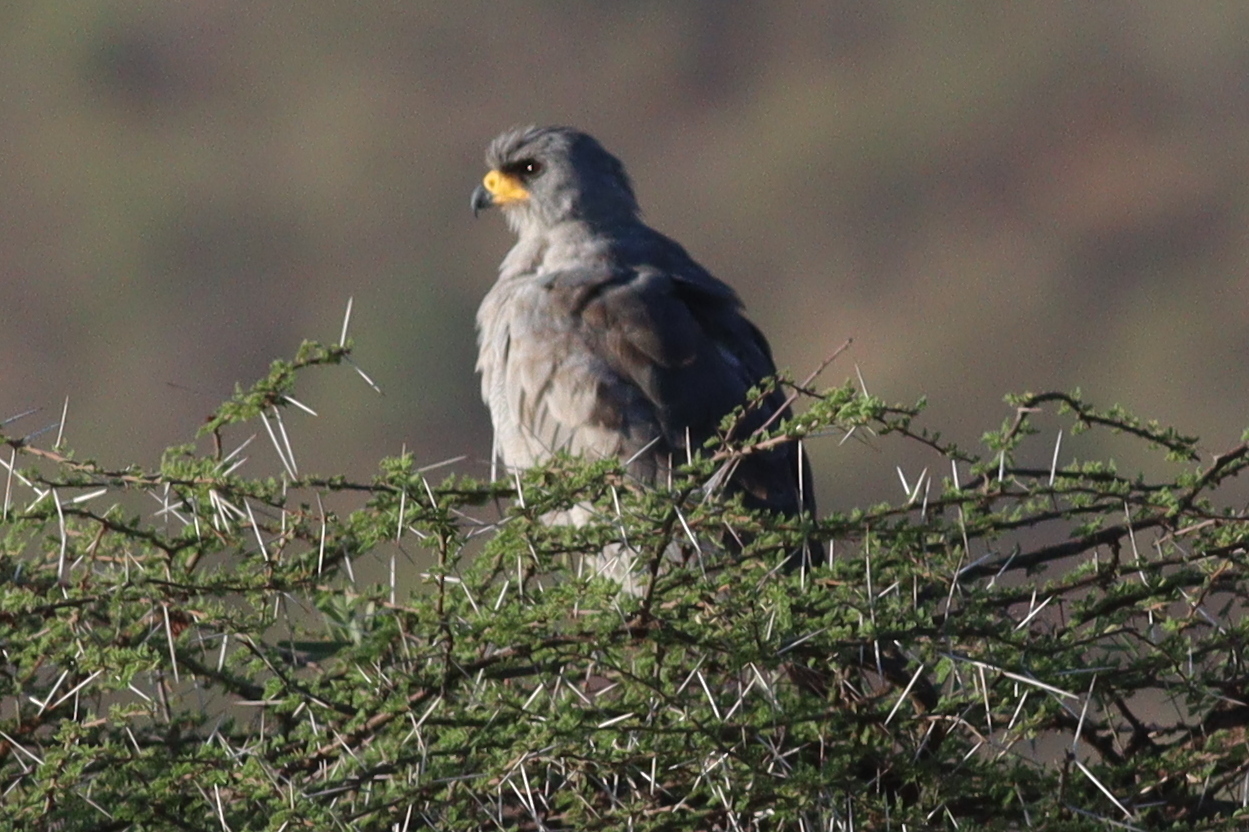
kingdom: Animalia
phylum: Chordata
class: Aves
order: Accipitriformes
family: Accipitridae
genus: Melierax
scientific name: Melierax poliopterus
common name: Eastern chanting goshawk
